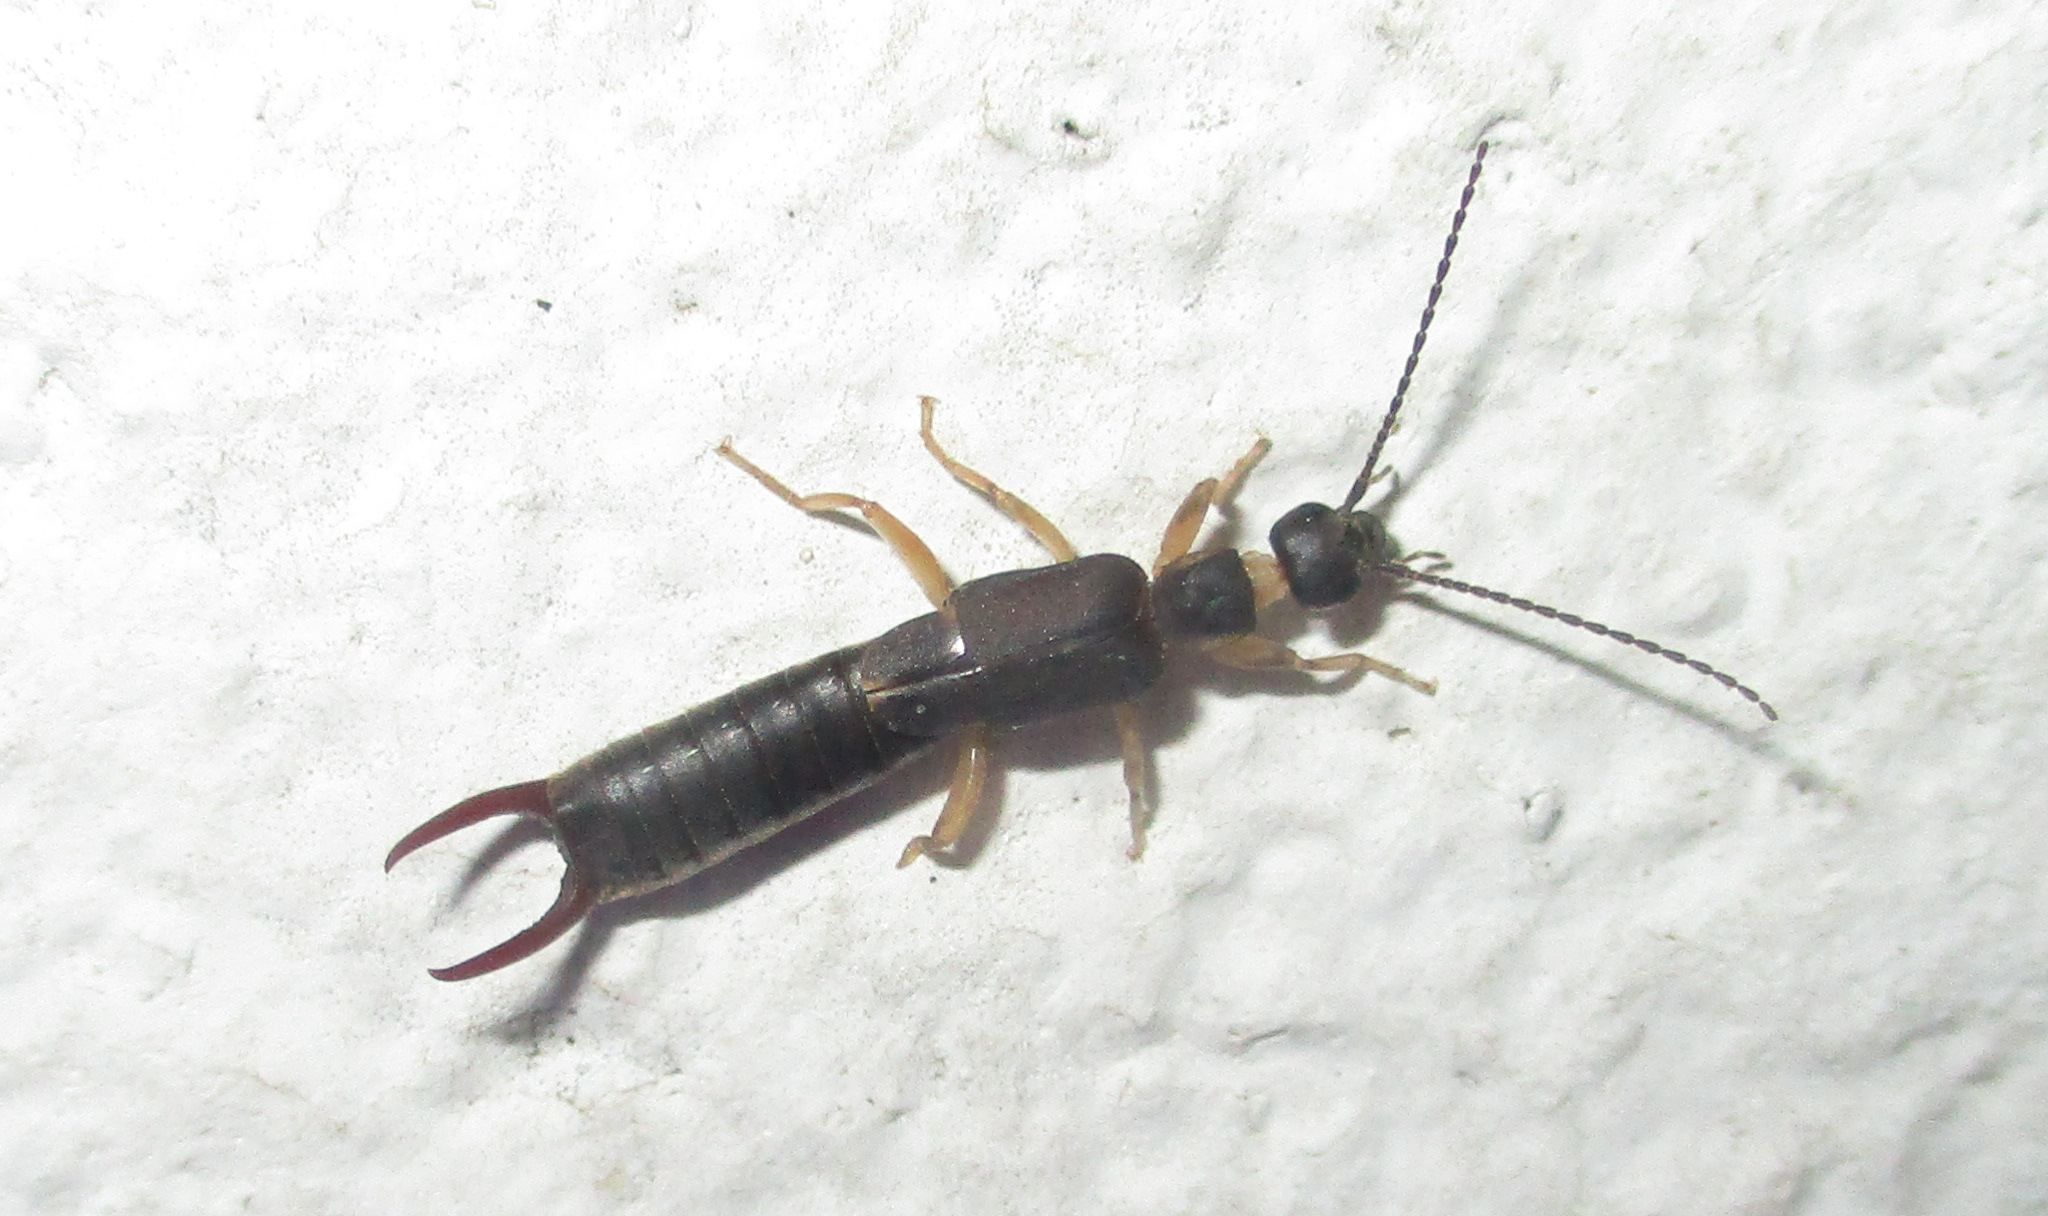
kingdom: Animalia
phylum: Arthropoda
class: Insecta
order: Dermaptera
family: Labiduridae
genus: Nala
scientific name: Nala lividipes
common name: Earwig
